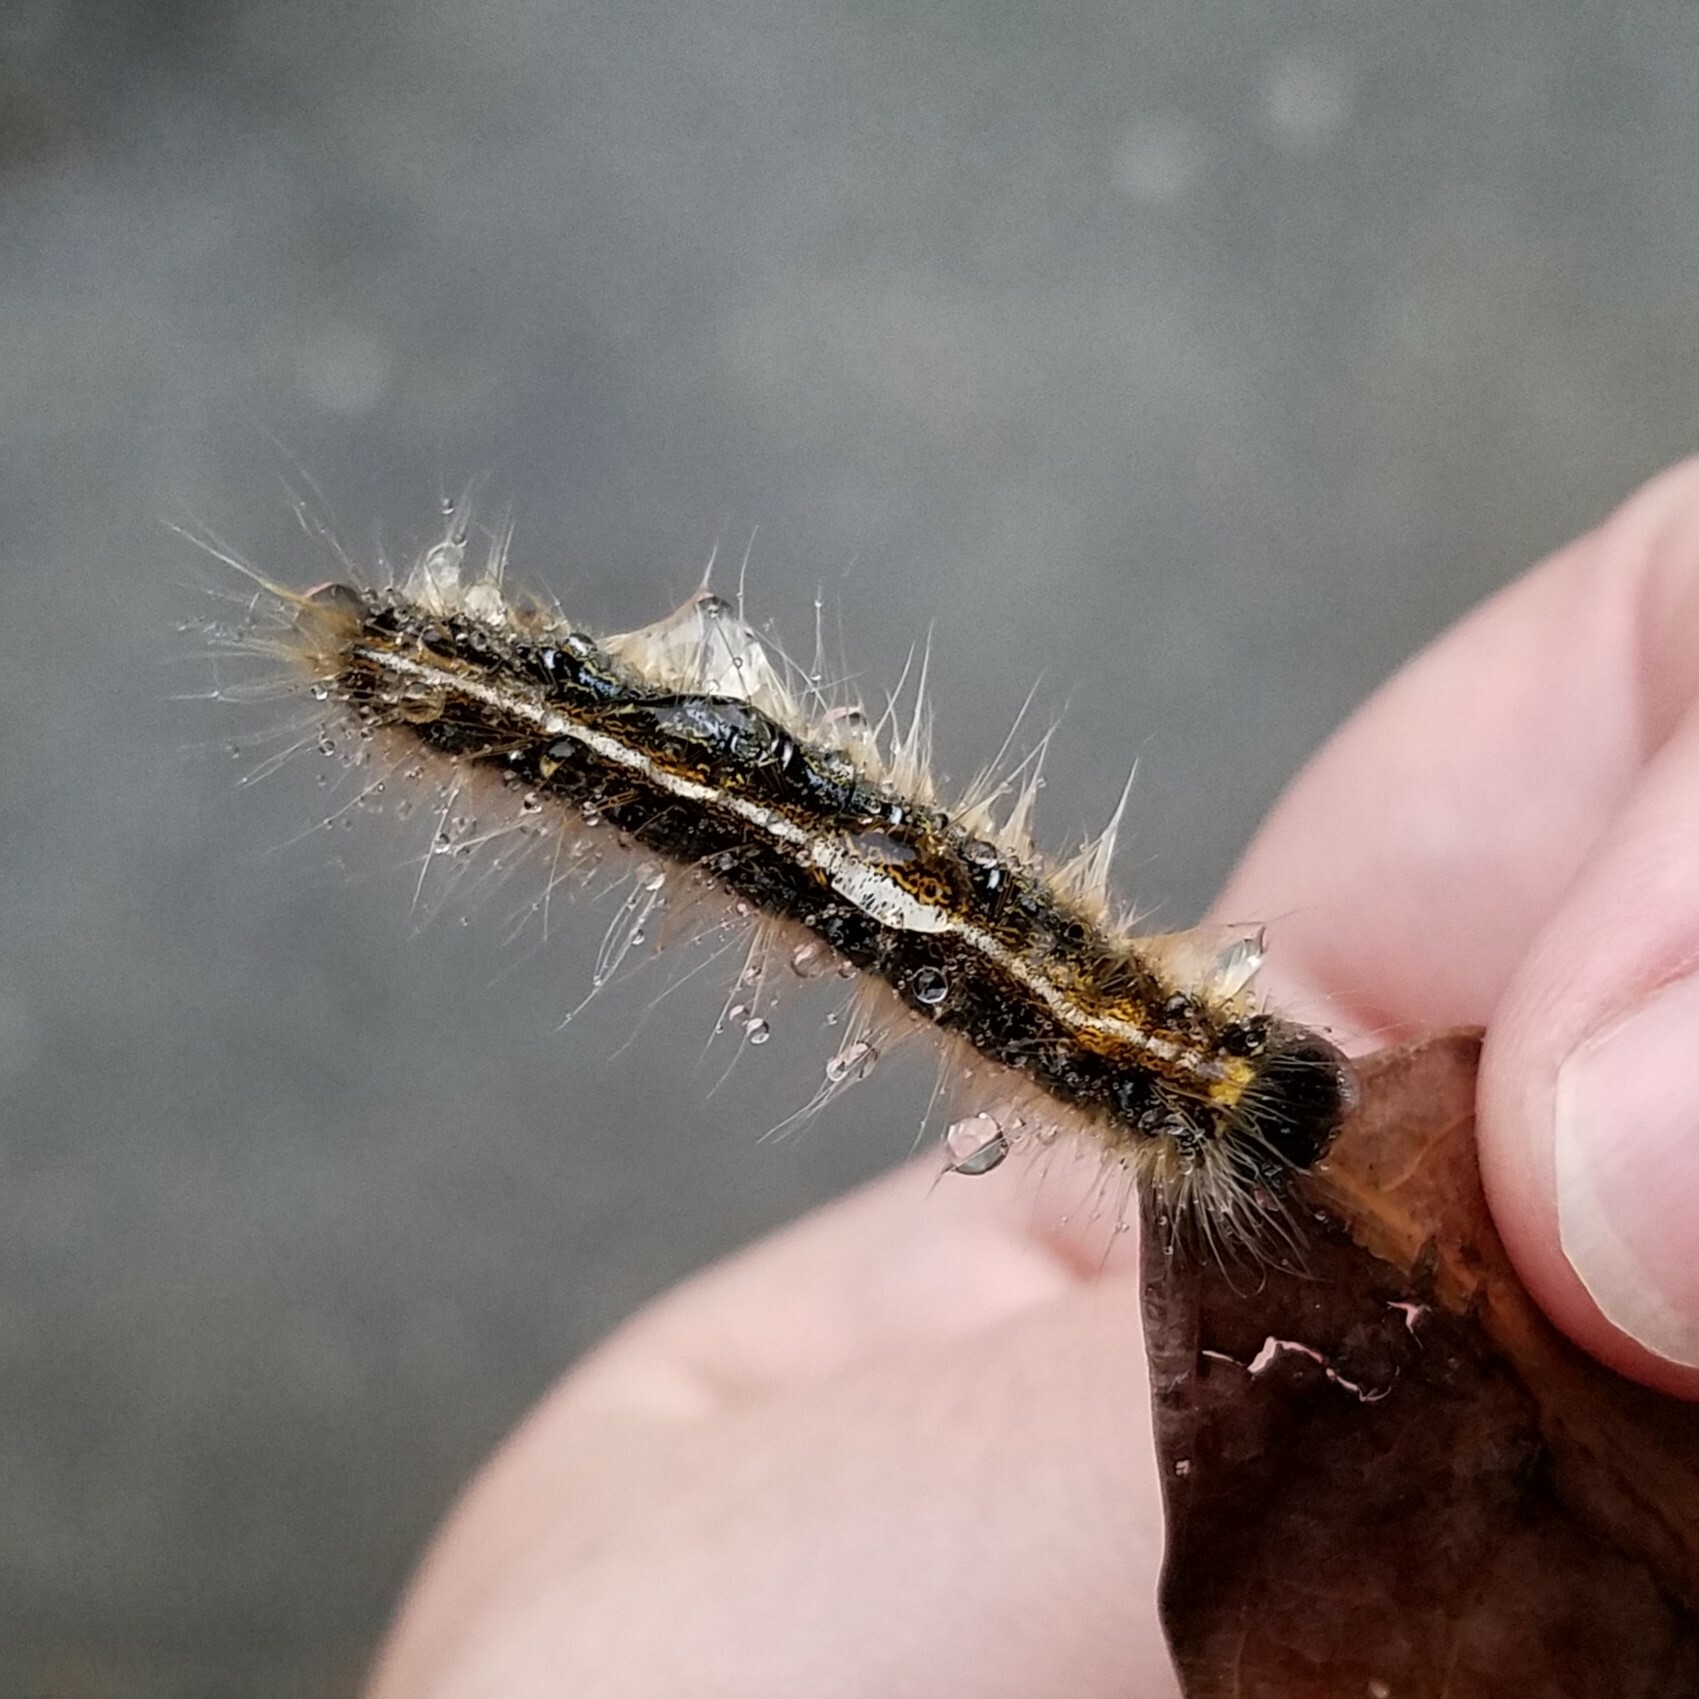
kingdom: Animalia
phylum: Arthropoda
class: Insecta
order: Lepidoptera
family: Lasiocampidae
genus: Malacosoma
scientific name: Malacosoma americana
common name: Eastern tent caterpillar moth
